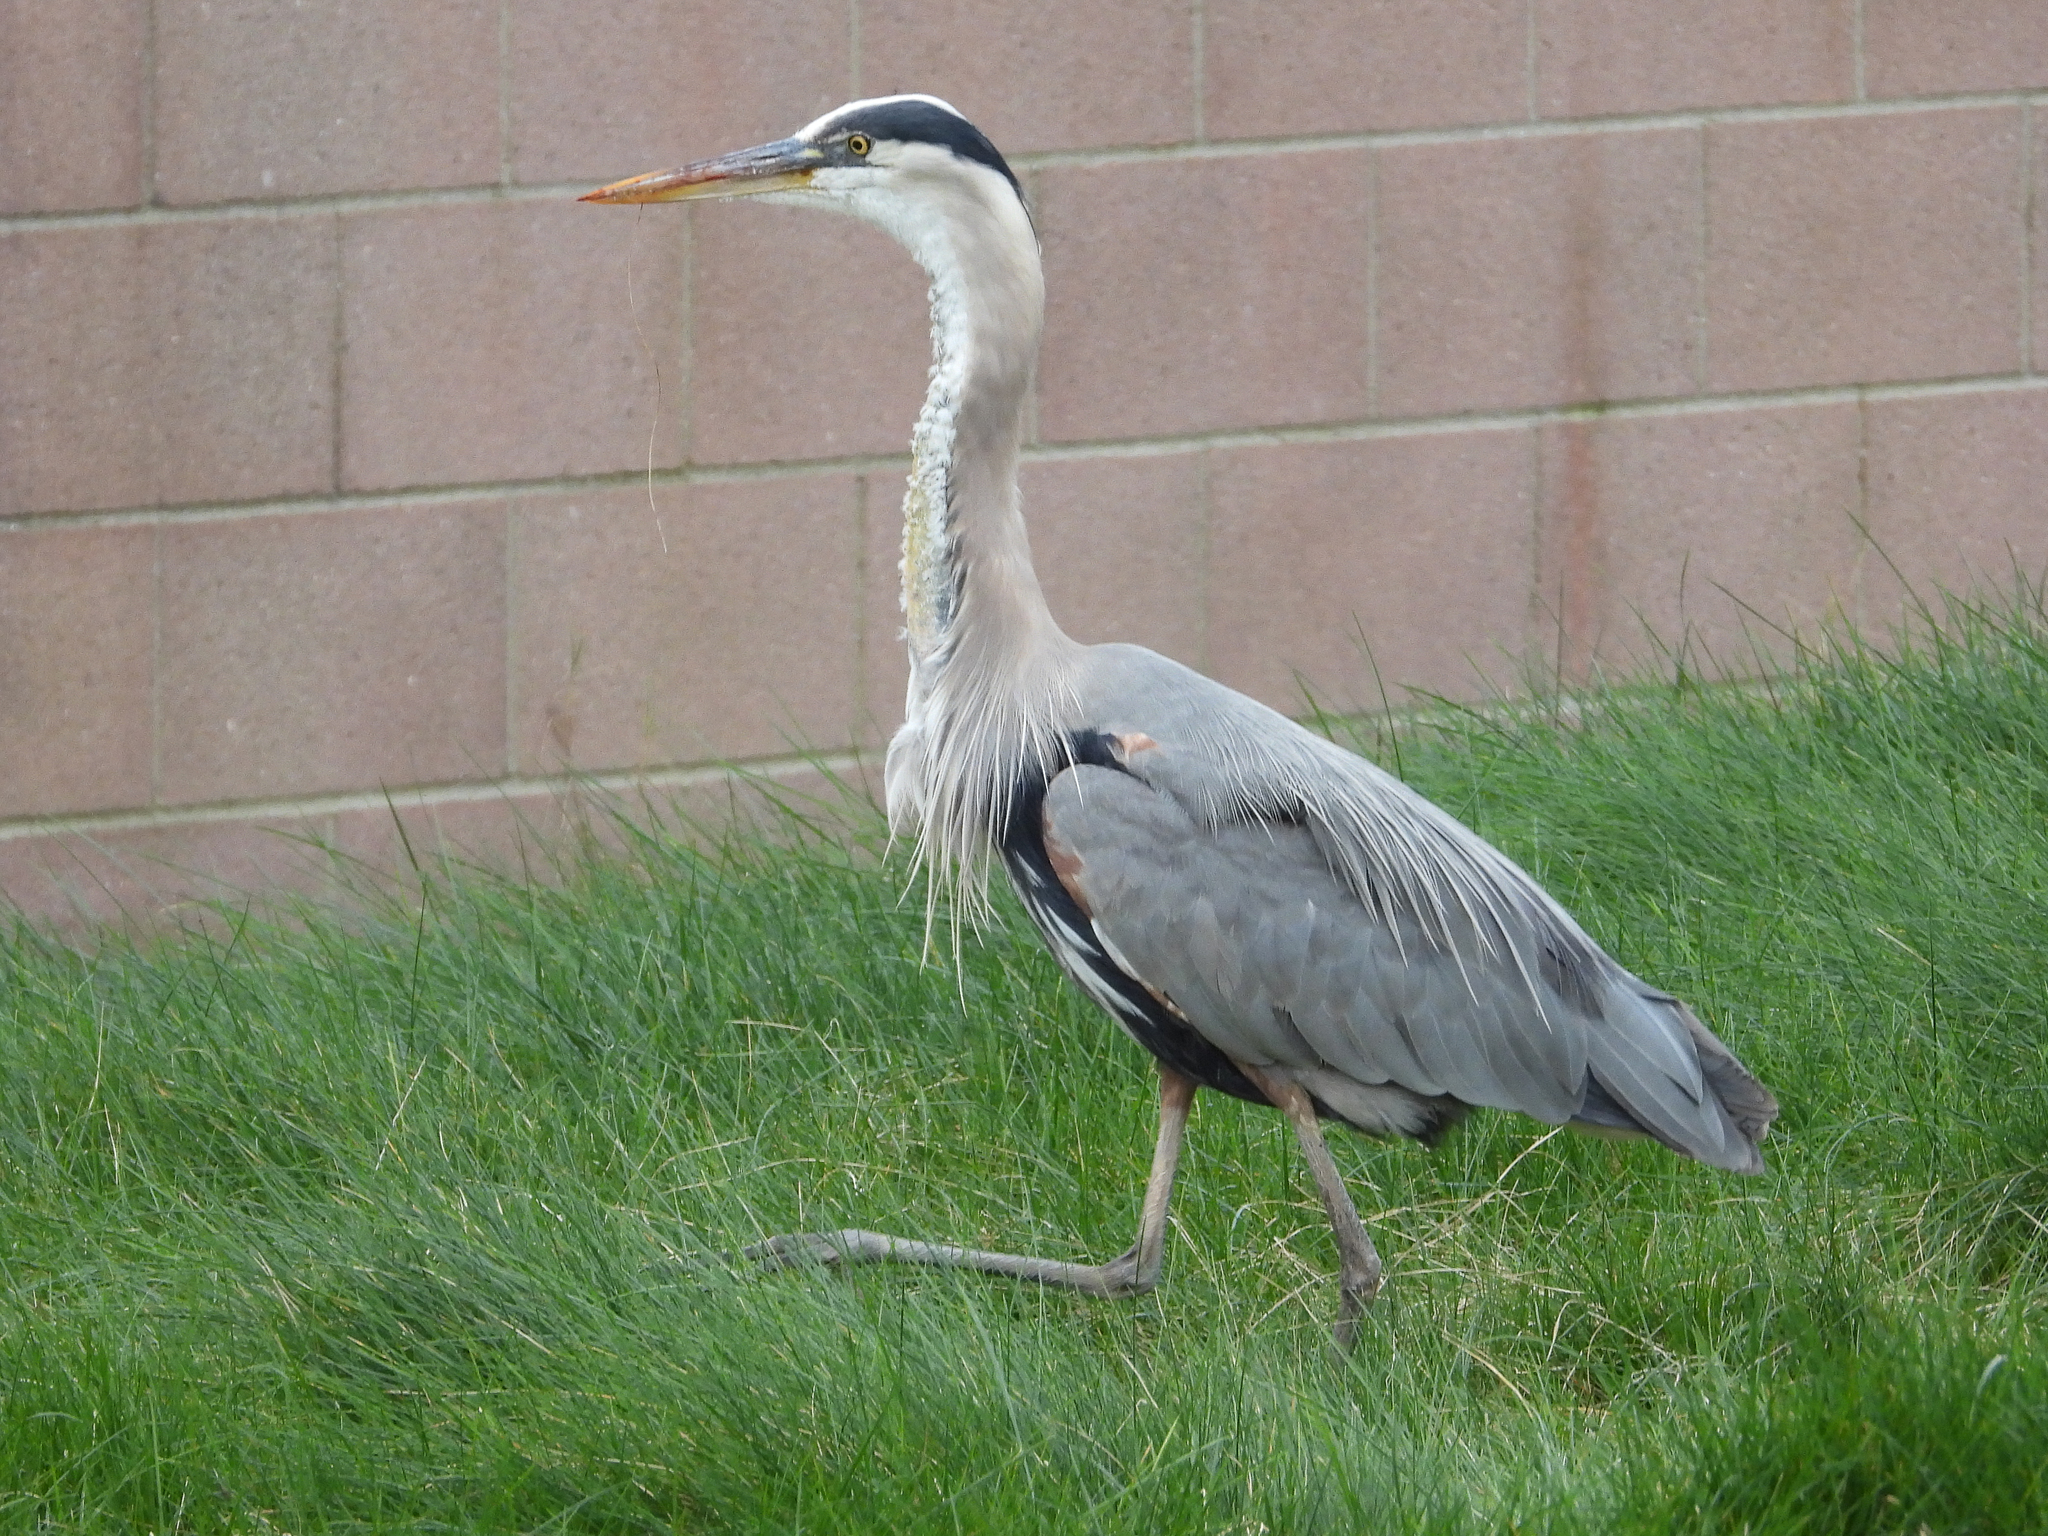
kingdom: Animalia
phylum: Chordata
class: Aves
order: Pelecaniformes
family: Ardeidae
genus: Ardea
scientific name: Ardea herodias
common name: Great blue heron
